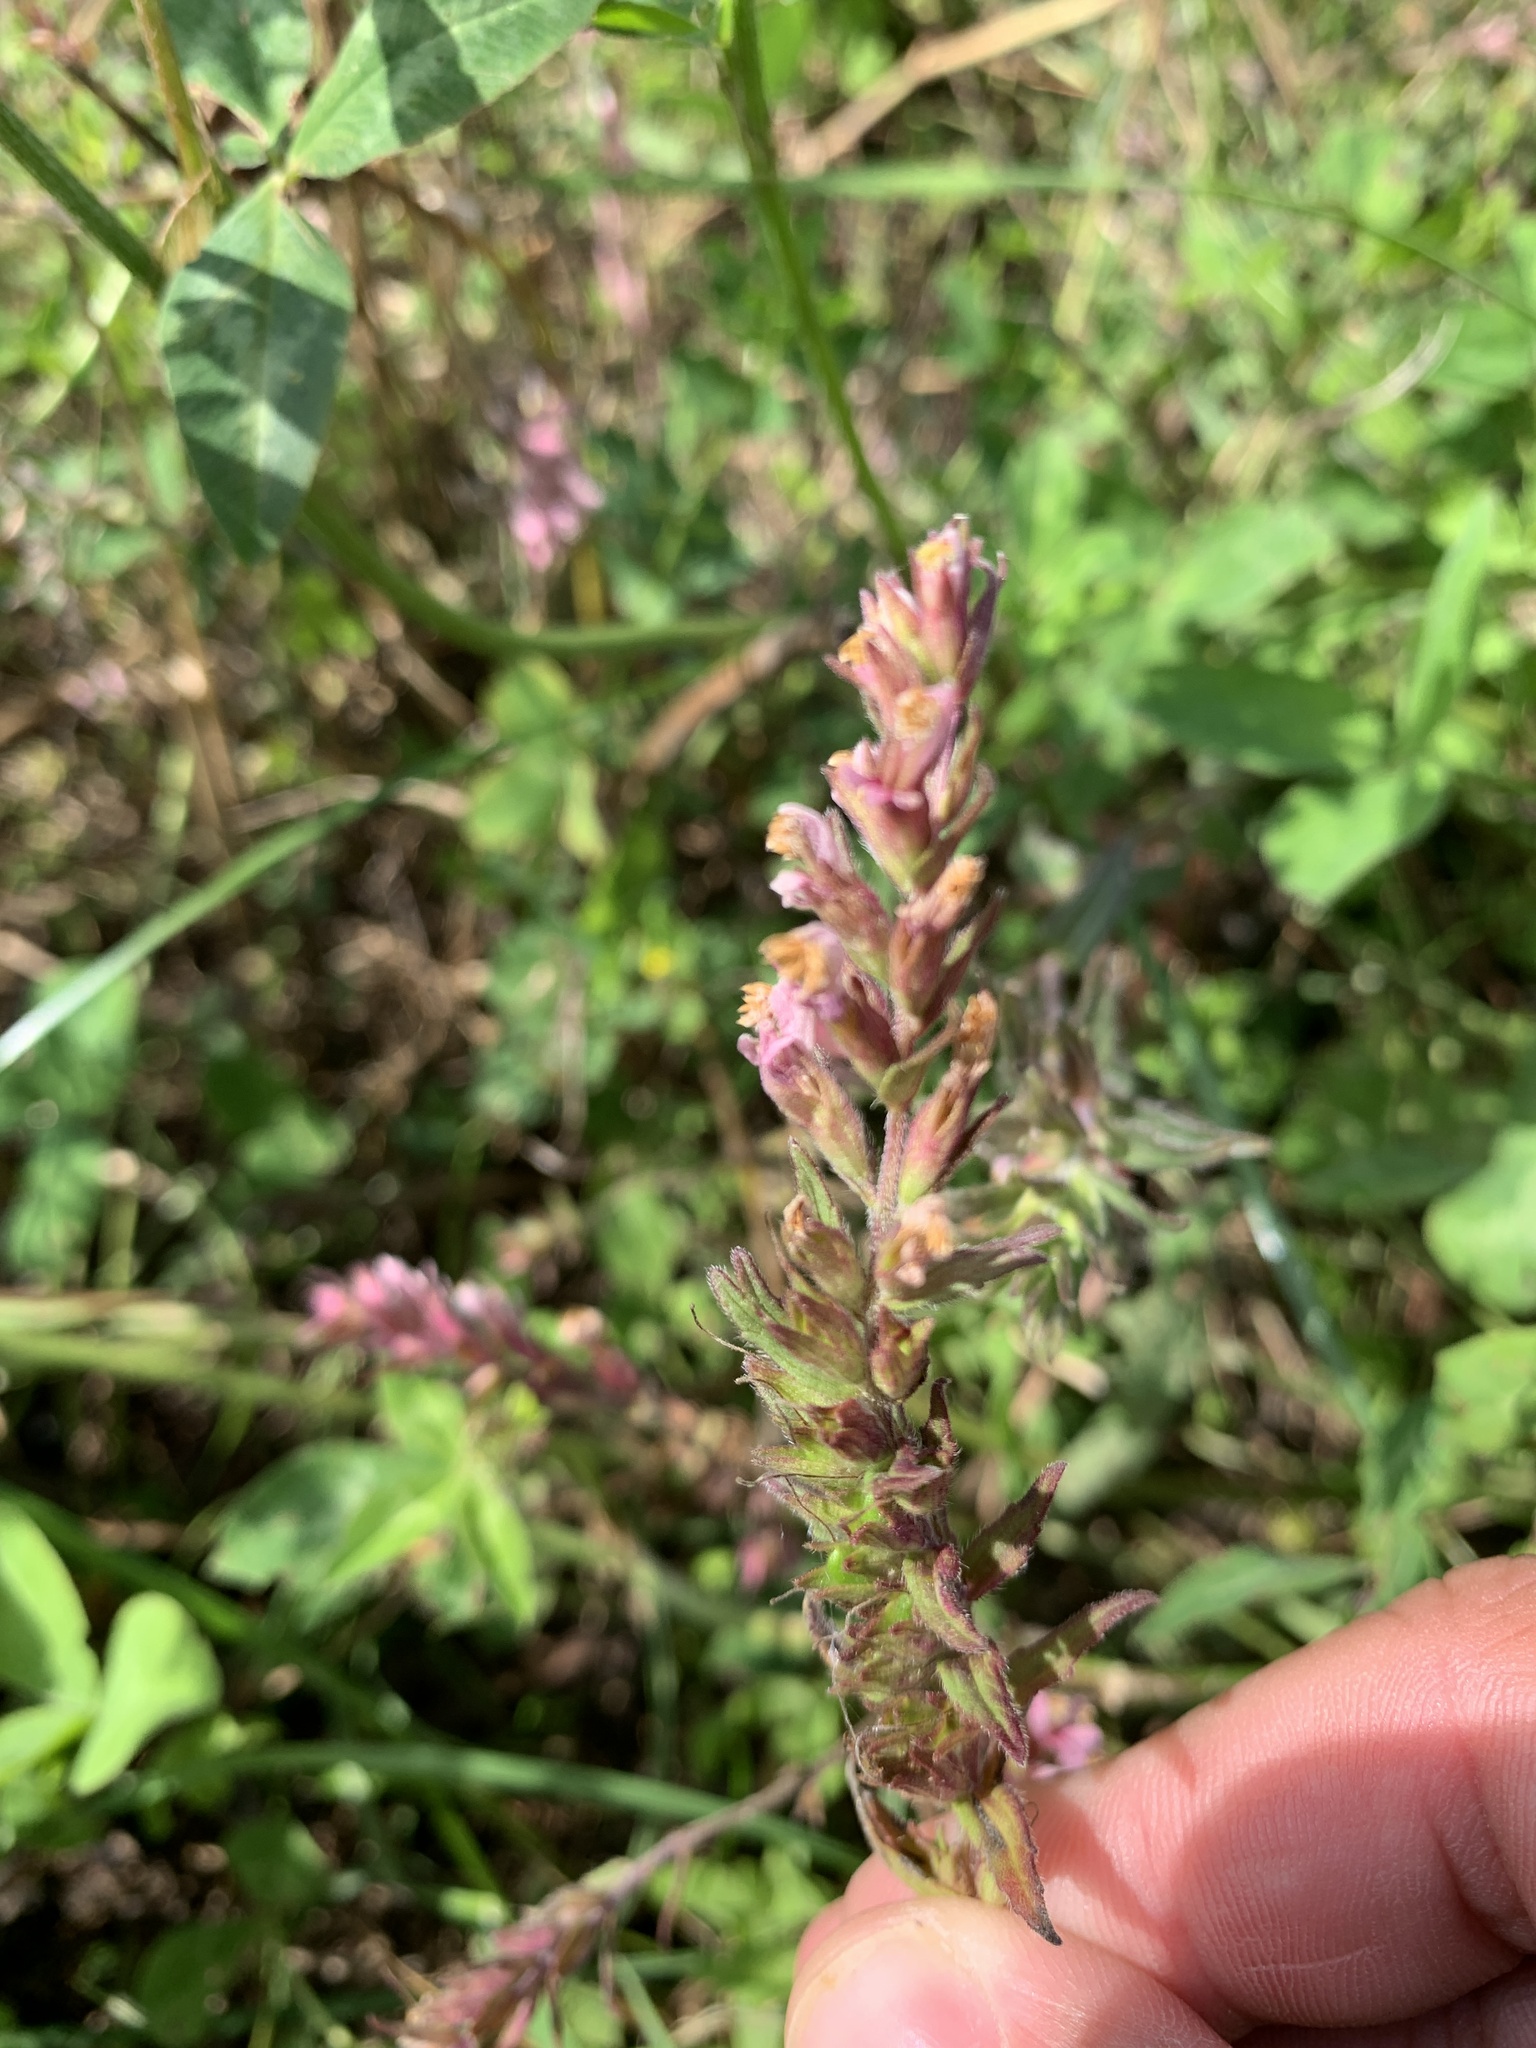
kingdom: Plantae
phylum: Tracheophyta
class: Magnoliopsida
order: Lamiales
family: Orobanchaceae
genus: Odontites
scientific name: Odontites vernus
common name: Red bartsia
